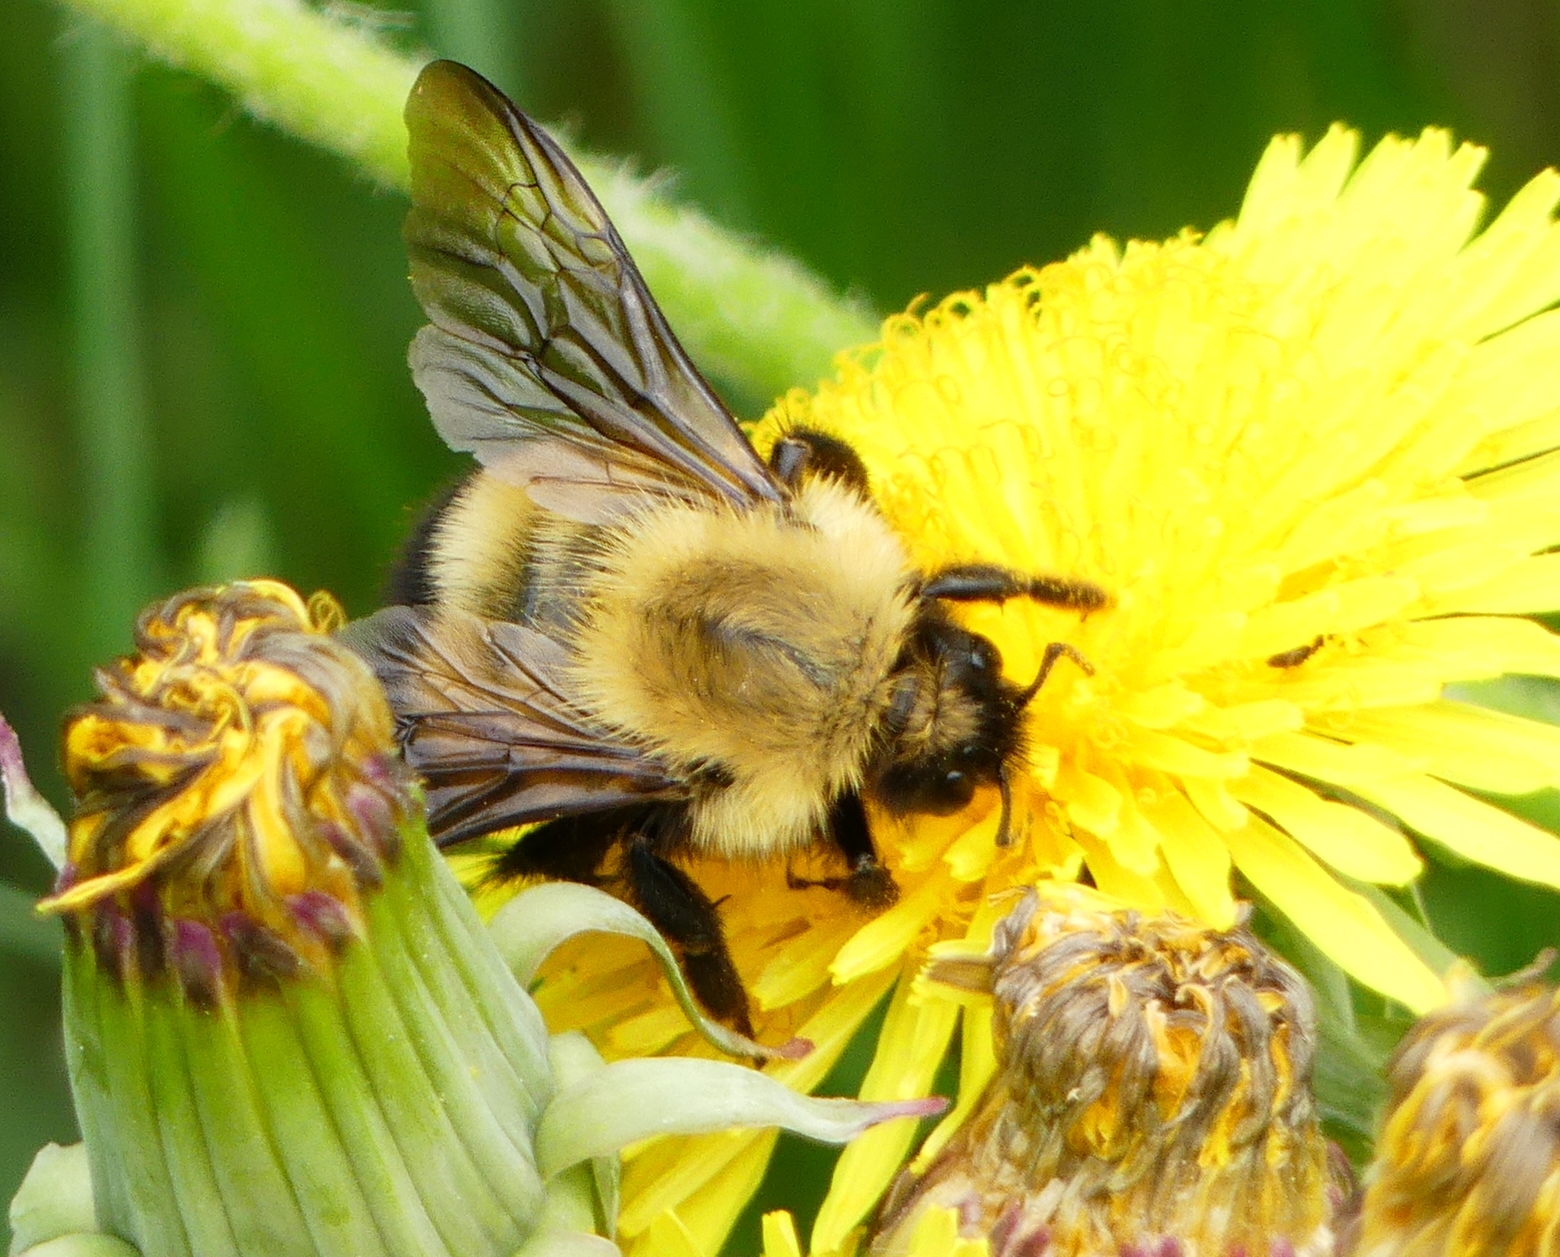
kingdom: Animalia
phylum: Arthropoda
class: Insecta
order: Hymenoptera
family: Apidae
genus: Bombus
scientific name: Bombus perplexus
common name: Confusing bumble bee
